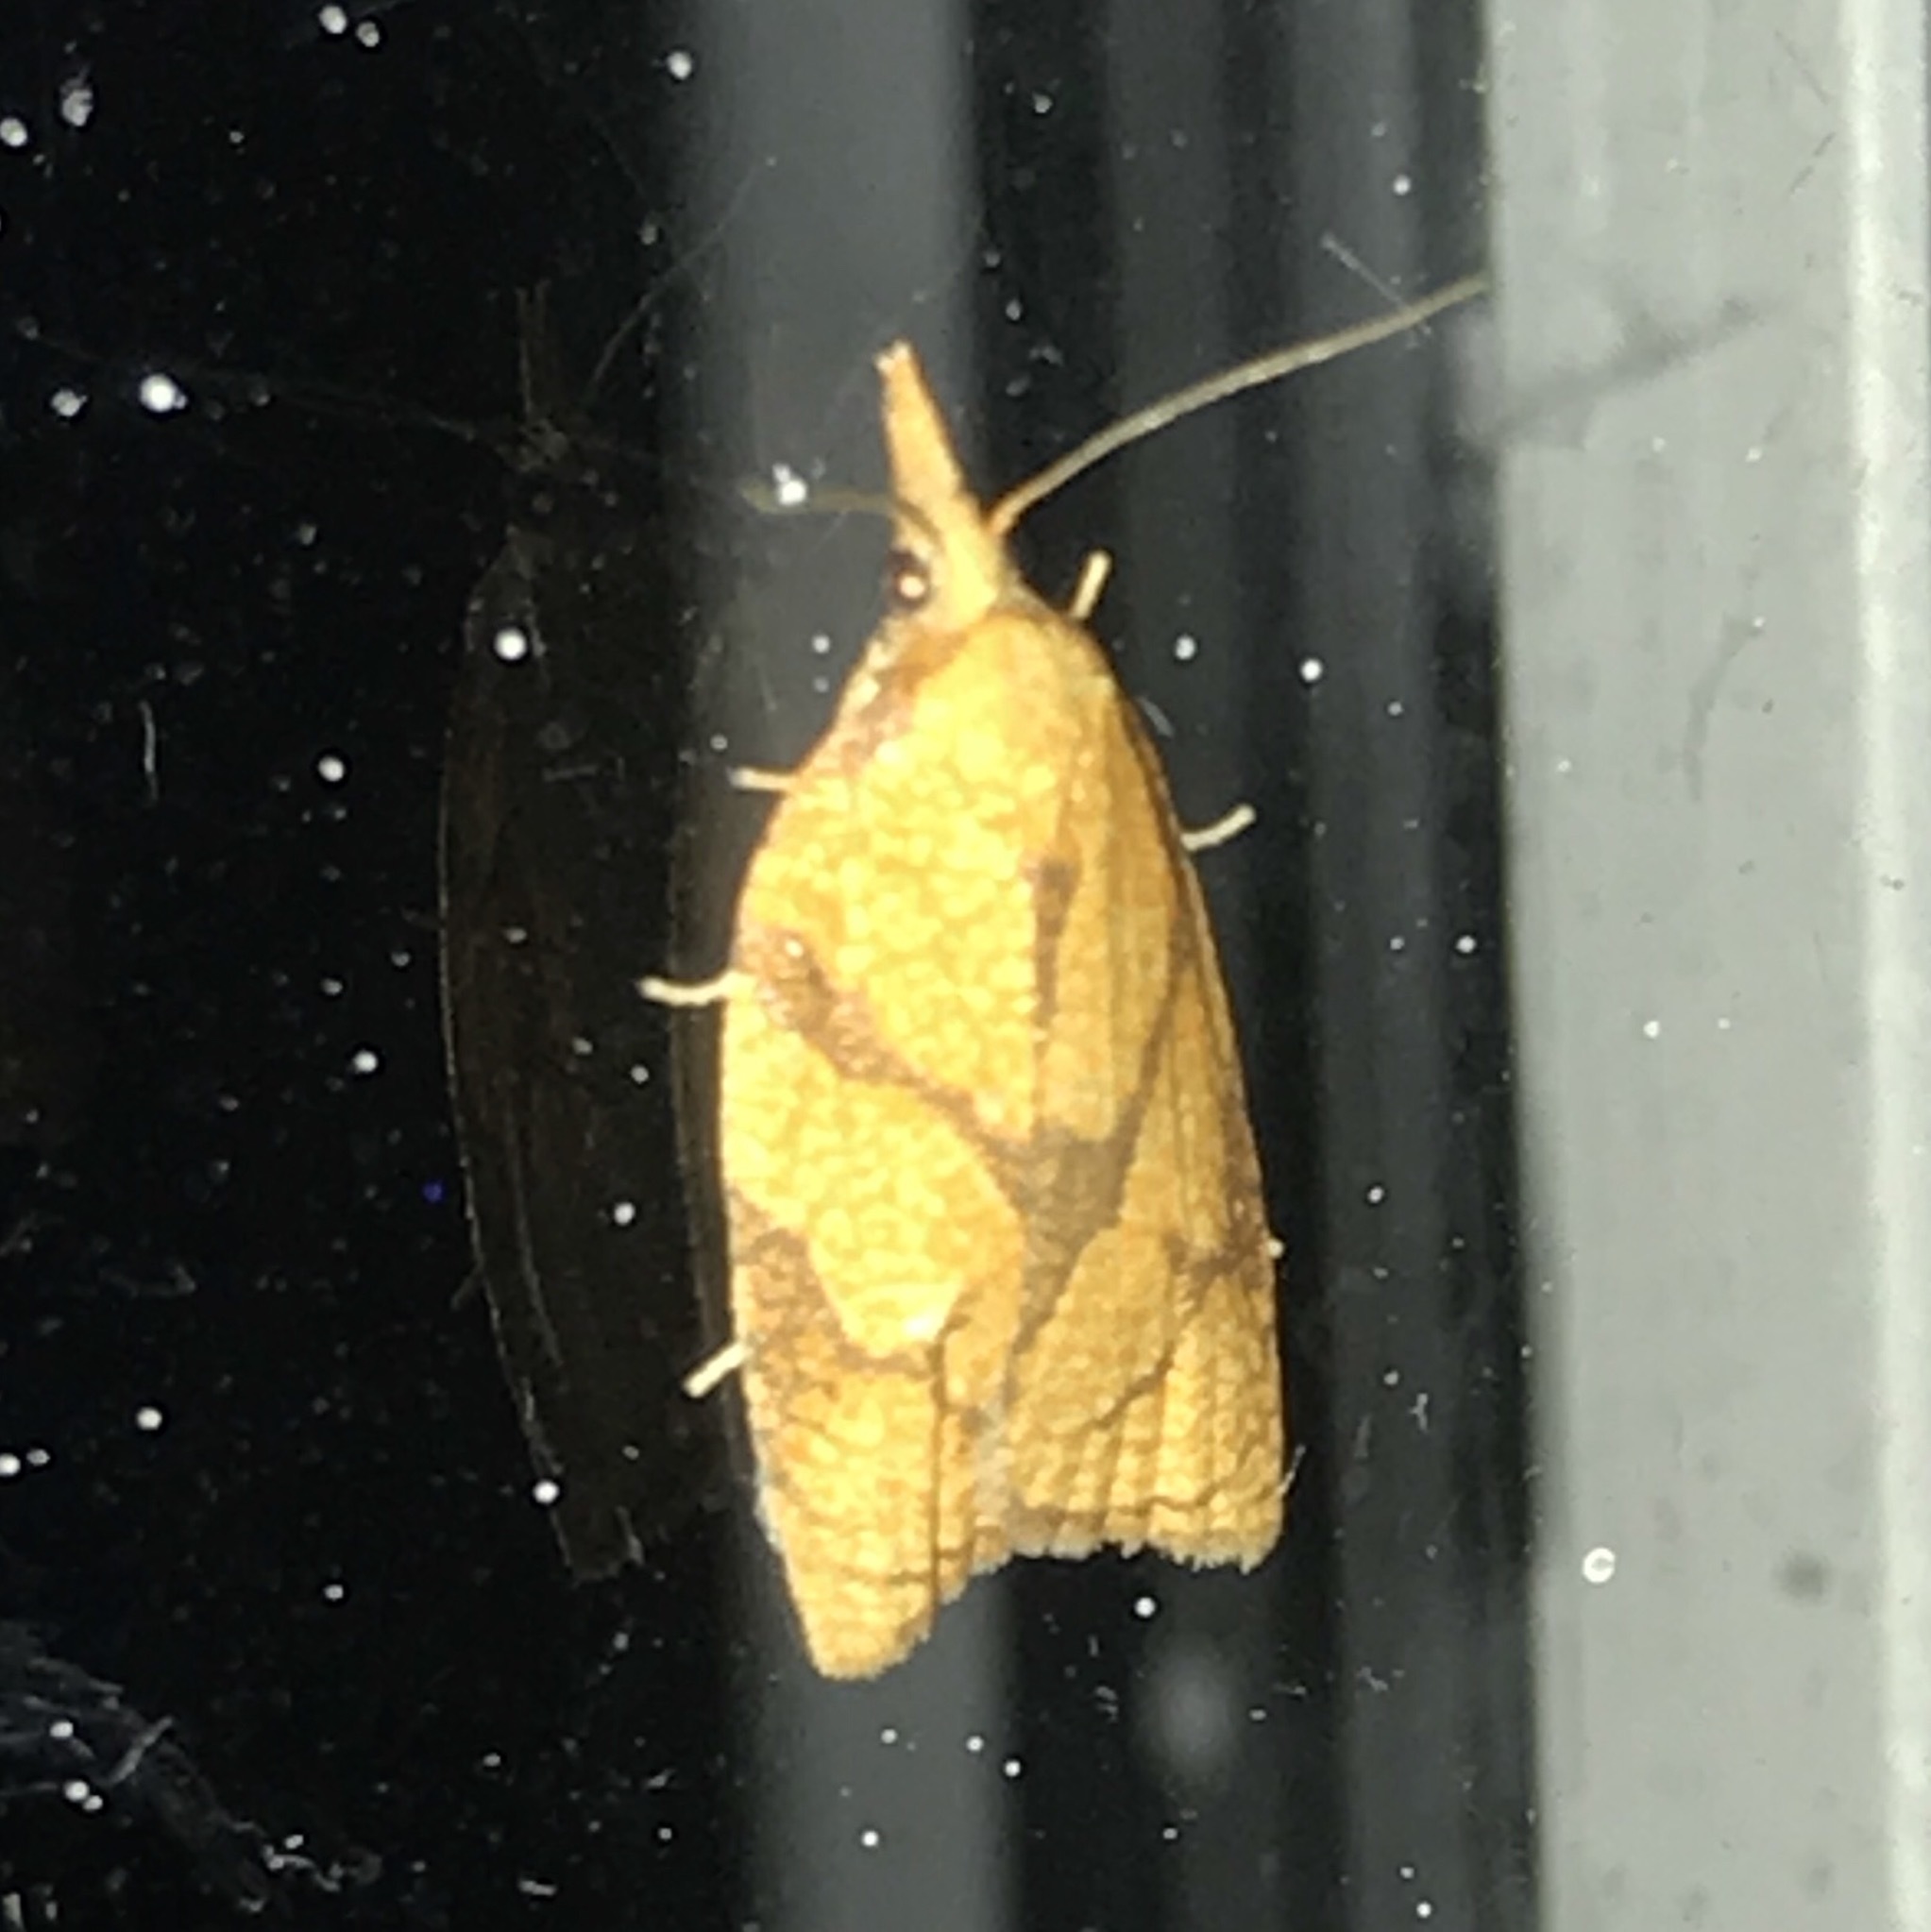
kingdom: Animalia
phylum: Arthropoda
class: Insecta
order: Lepidoptera
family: Tortricidae
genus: Cenopis
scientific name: Cenopis reticulatana
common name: Reticulated fruitworm moth
